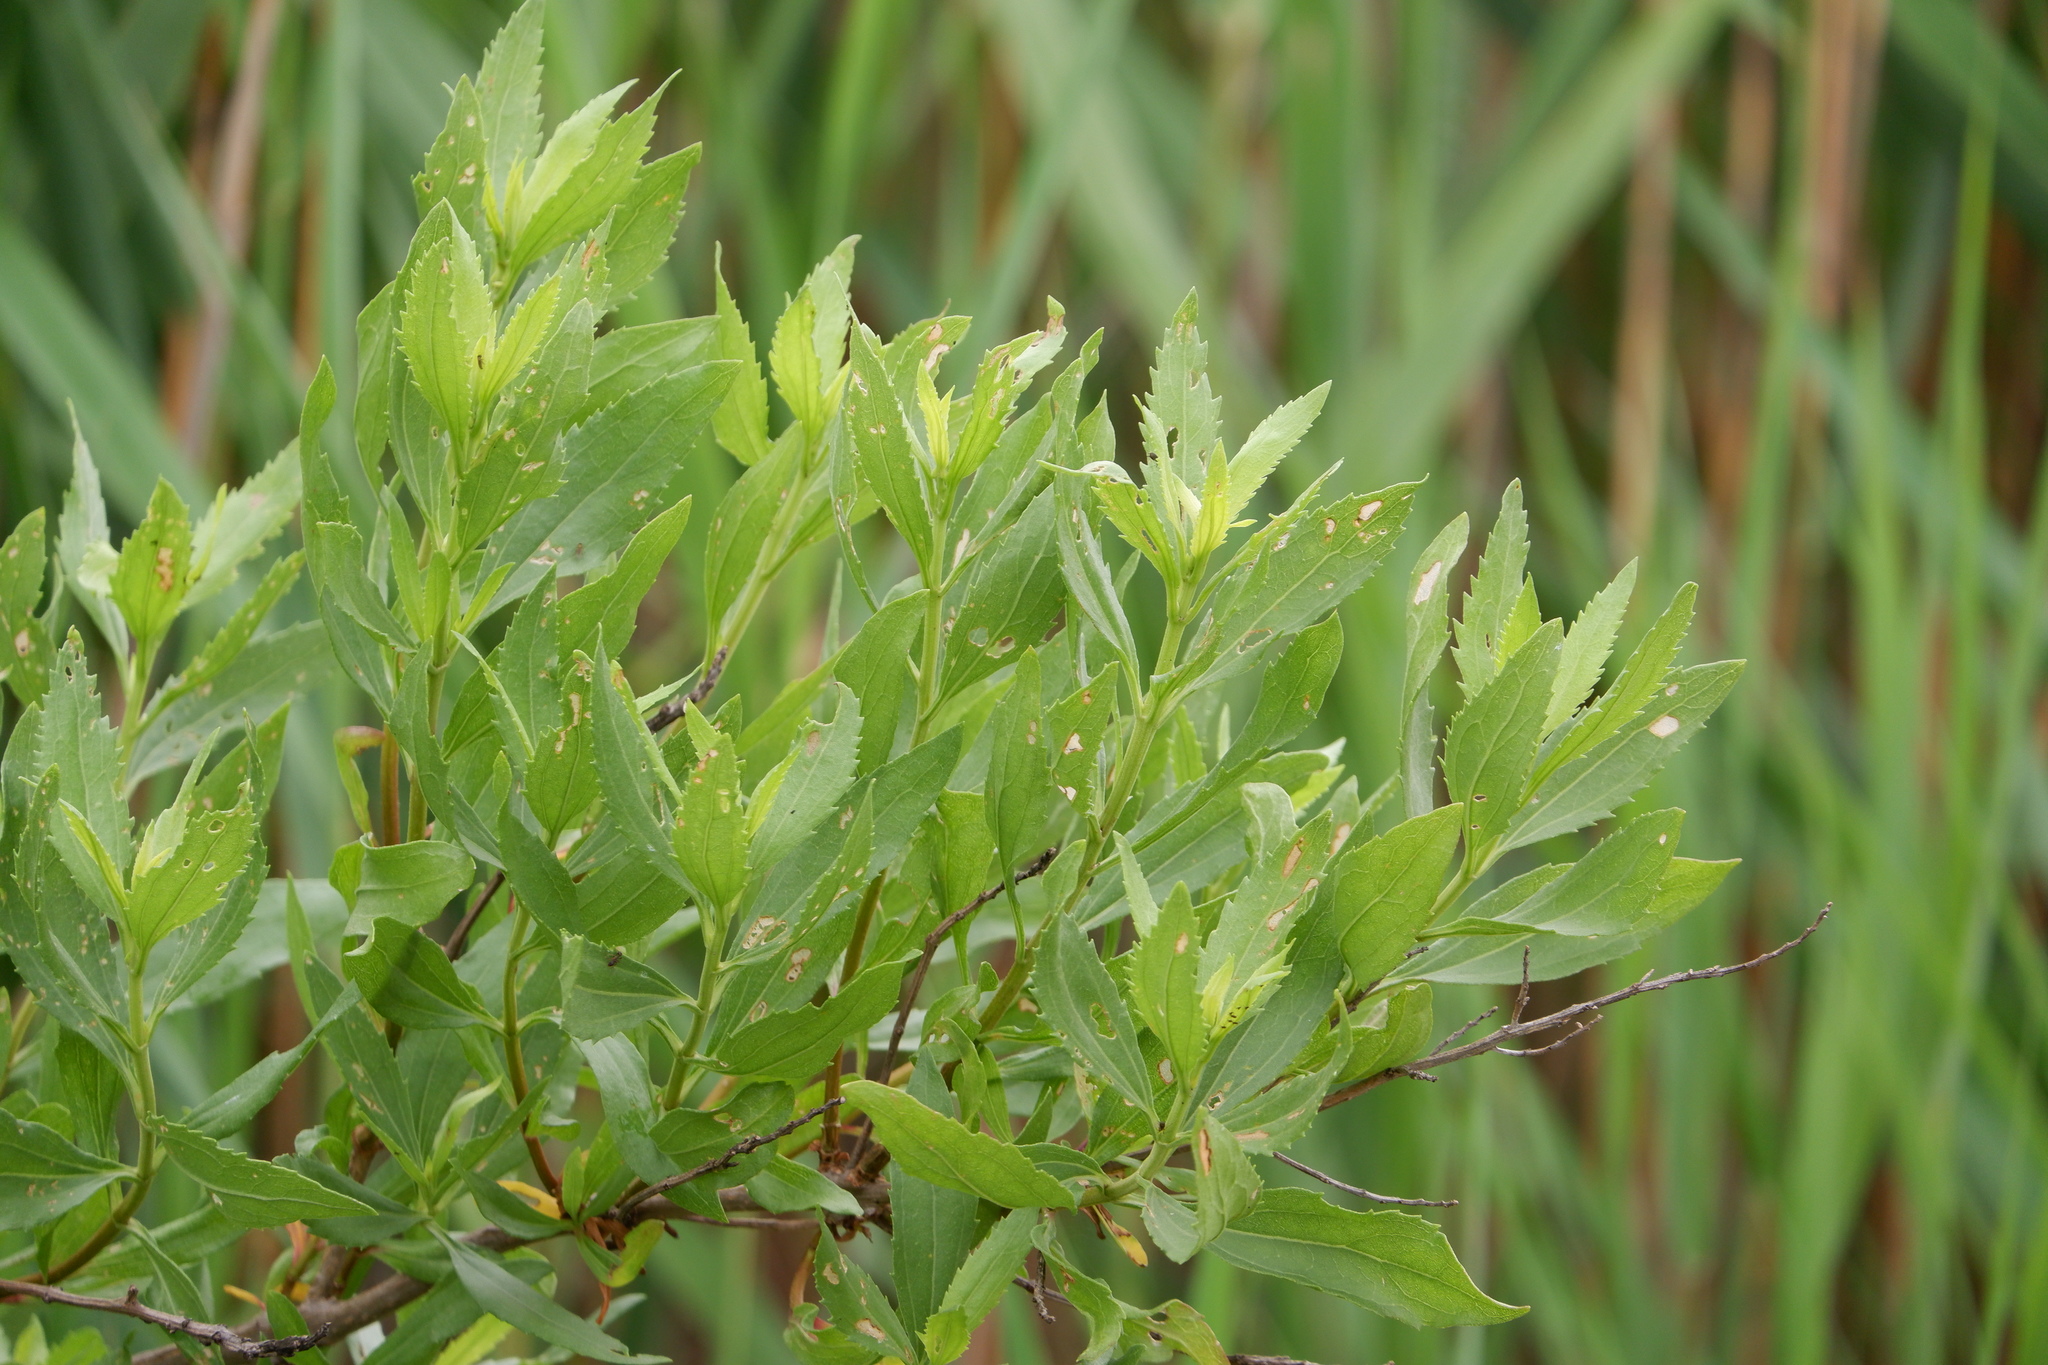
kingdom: Plantae
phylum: Tracheophyta
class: Magnoliopsida
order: Asterales
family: Asteraceae
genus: Iva
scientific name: Iva frutescens
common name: Big-leaved marsh-elder
